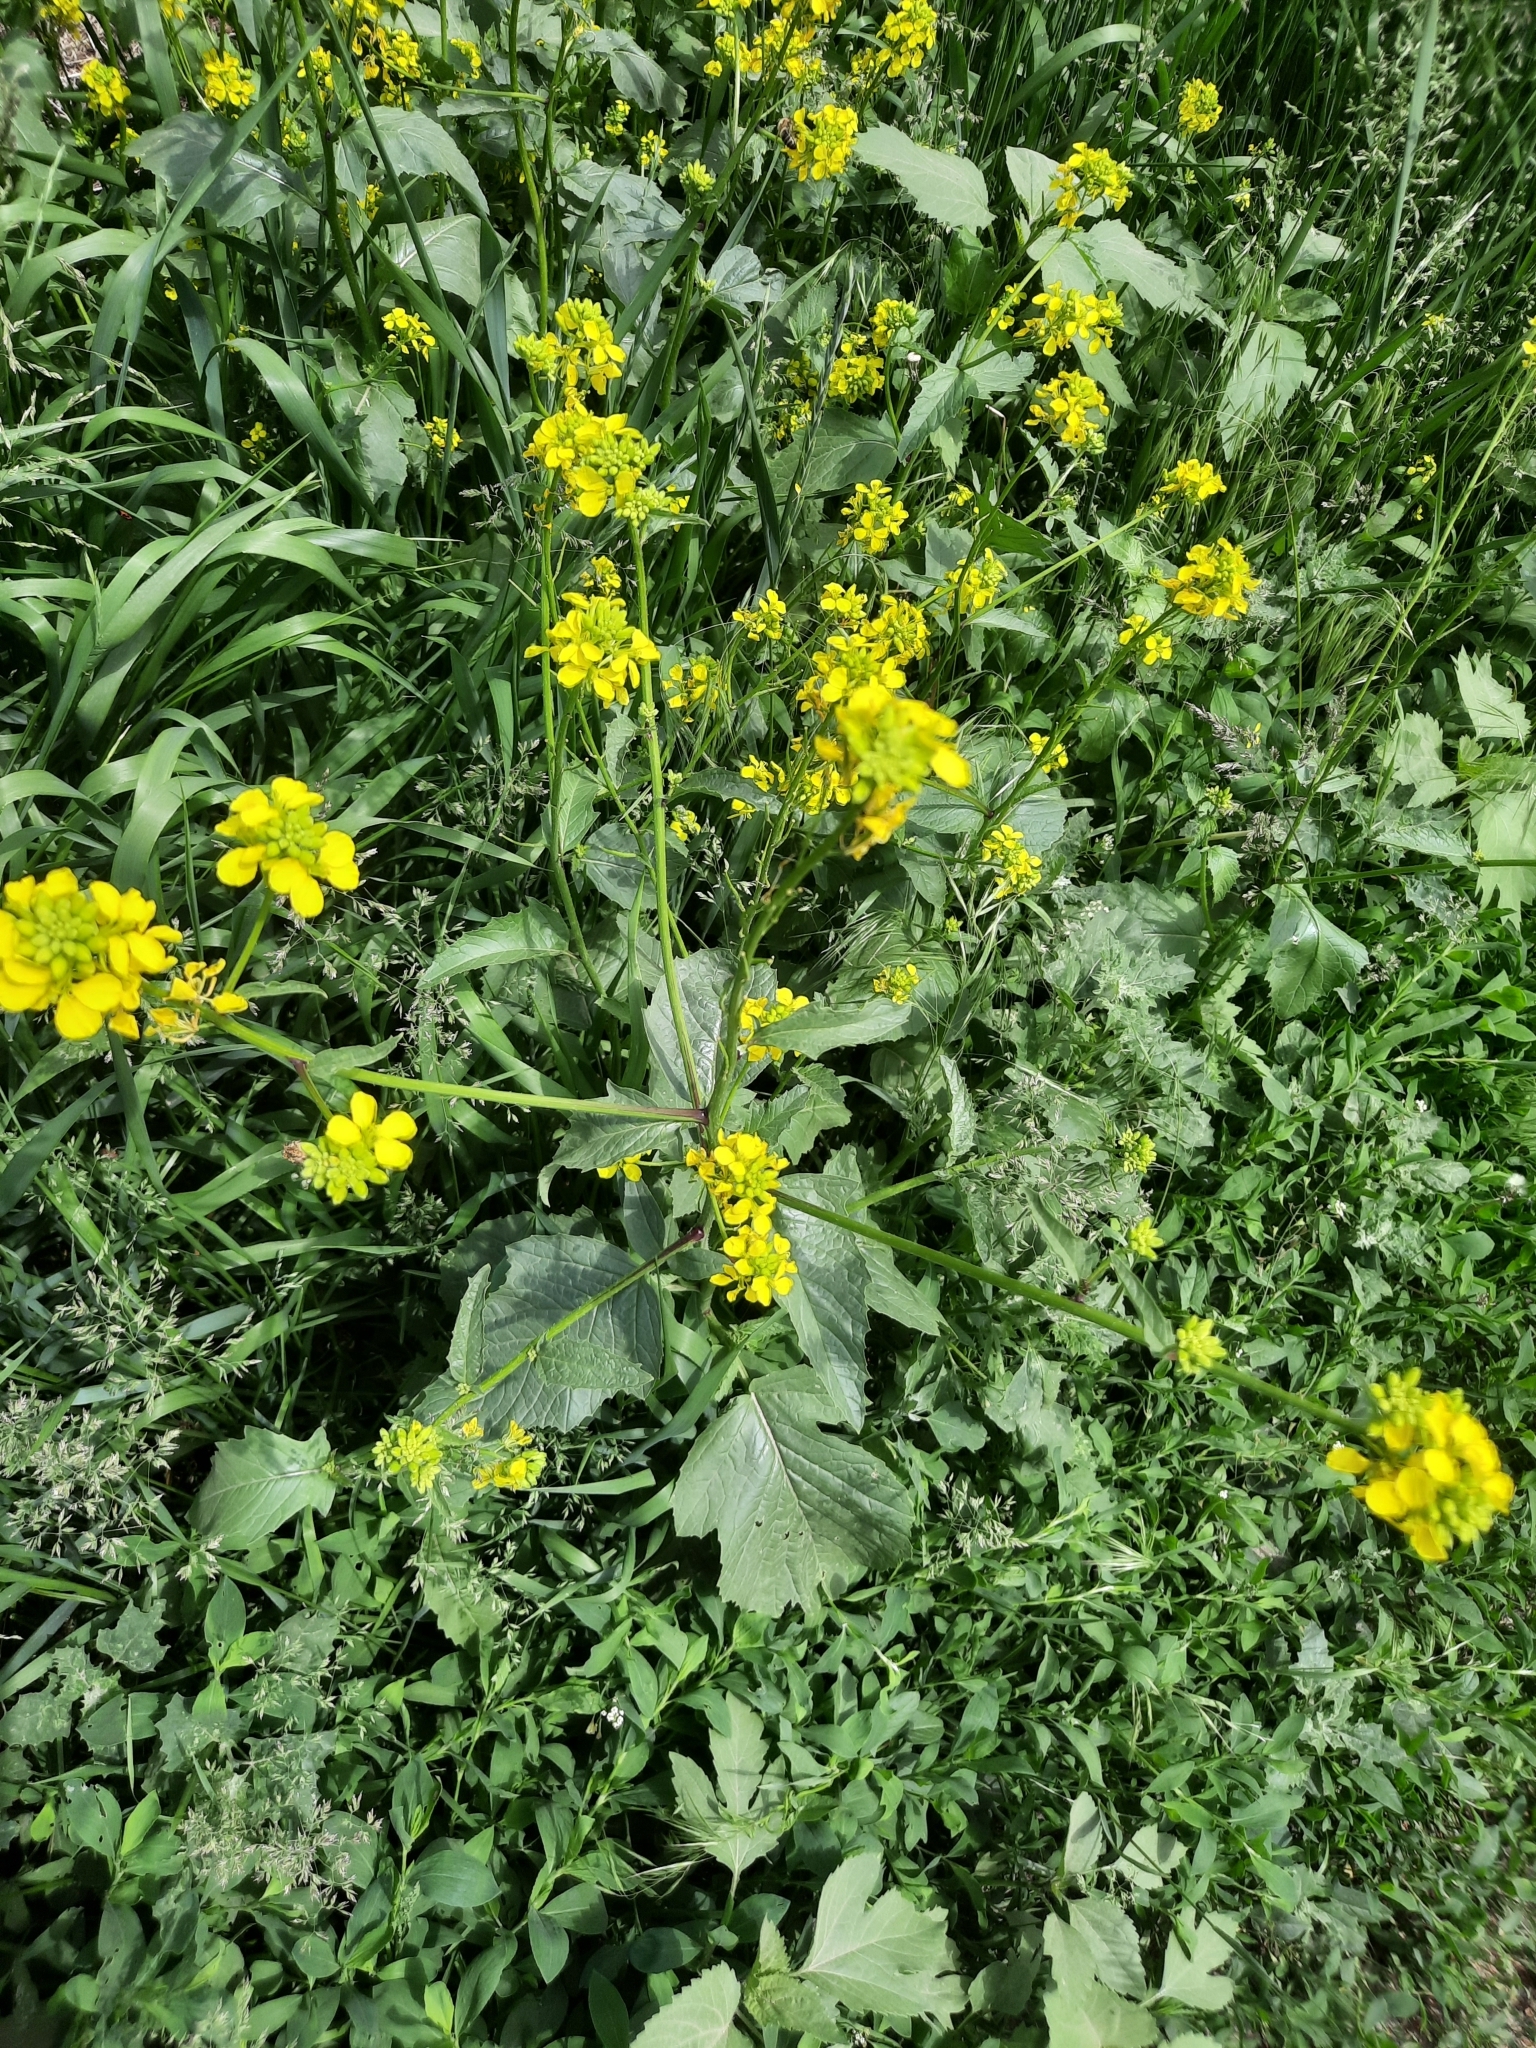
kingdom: Plantae
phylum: Tracheophyta
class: Magnoliopsida
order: Brassicales
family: Brassicaceae
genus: Sinapis
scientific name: Sinapis arvensis
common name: Charlock
